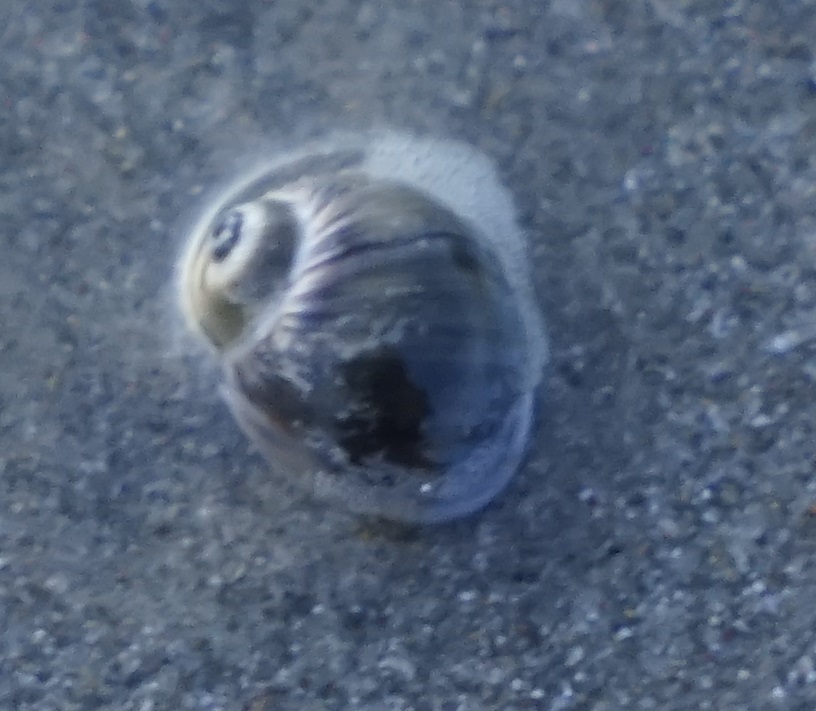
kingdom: Animalia
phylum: Mollusca
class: Gastropoda
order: Littorinimorpha
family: Naticidae
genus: Notocochlis
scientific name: Notocochlis gualteriana
